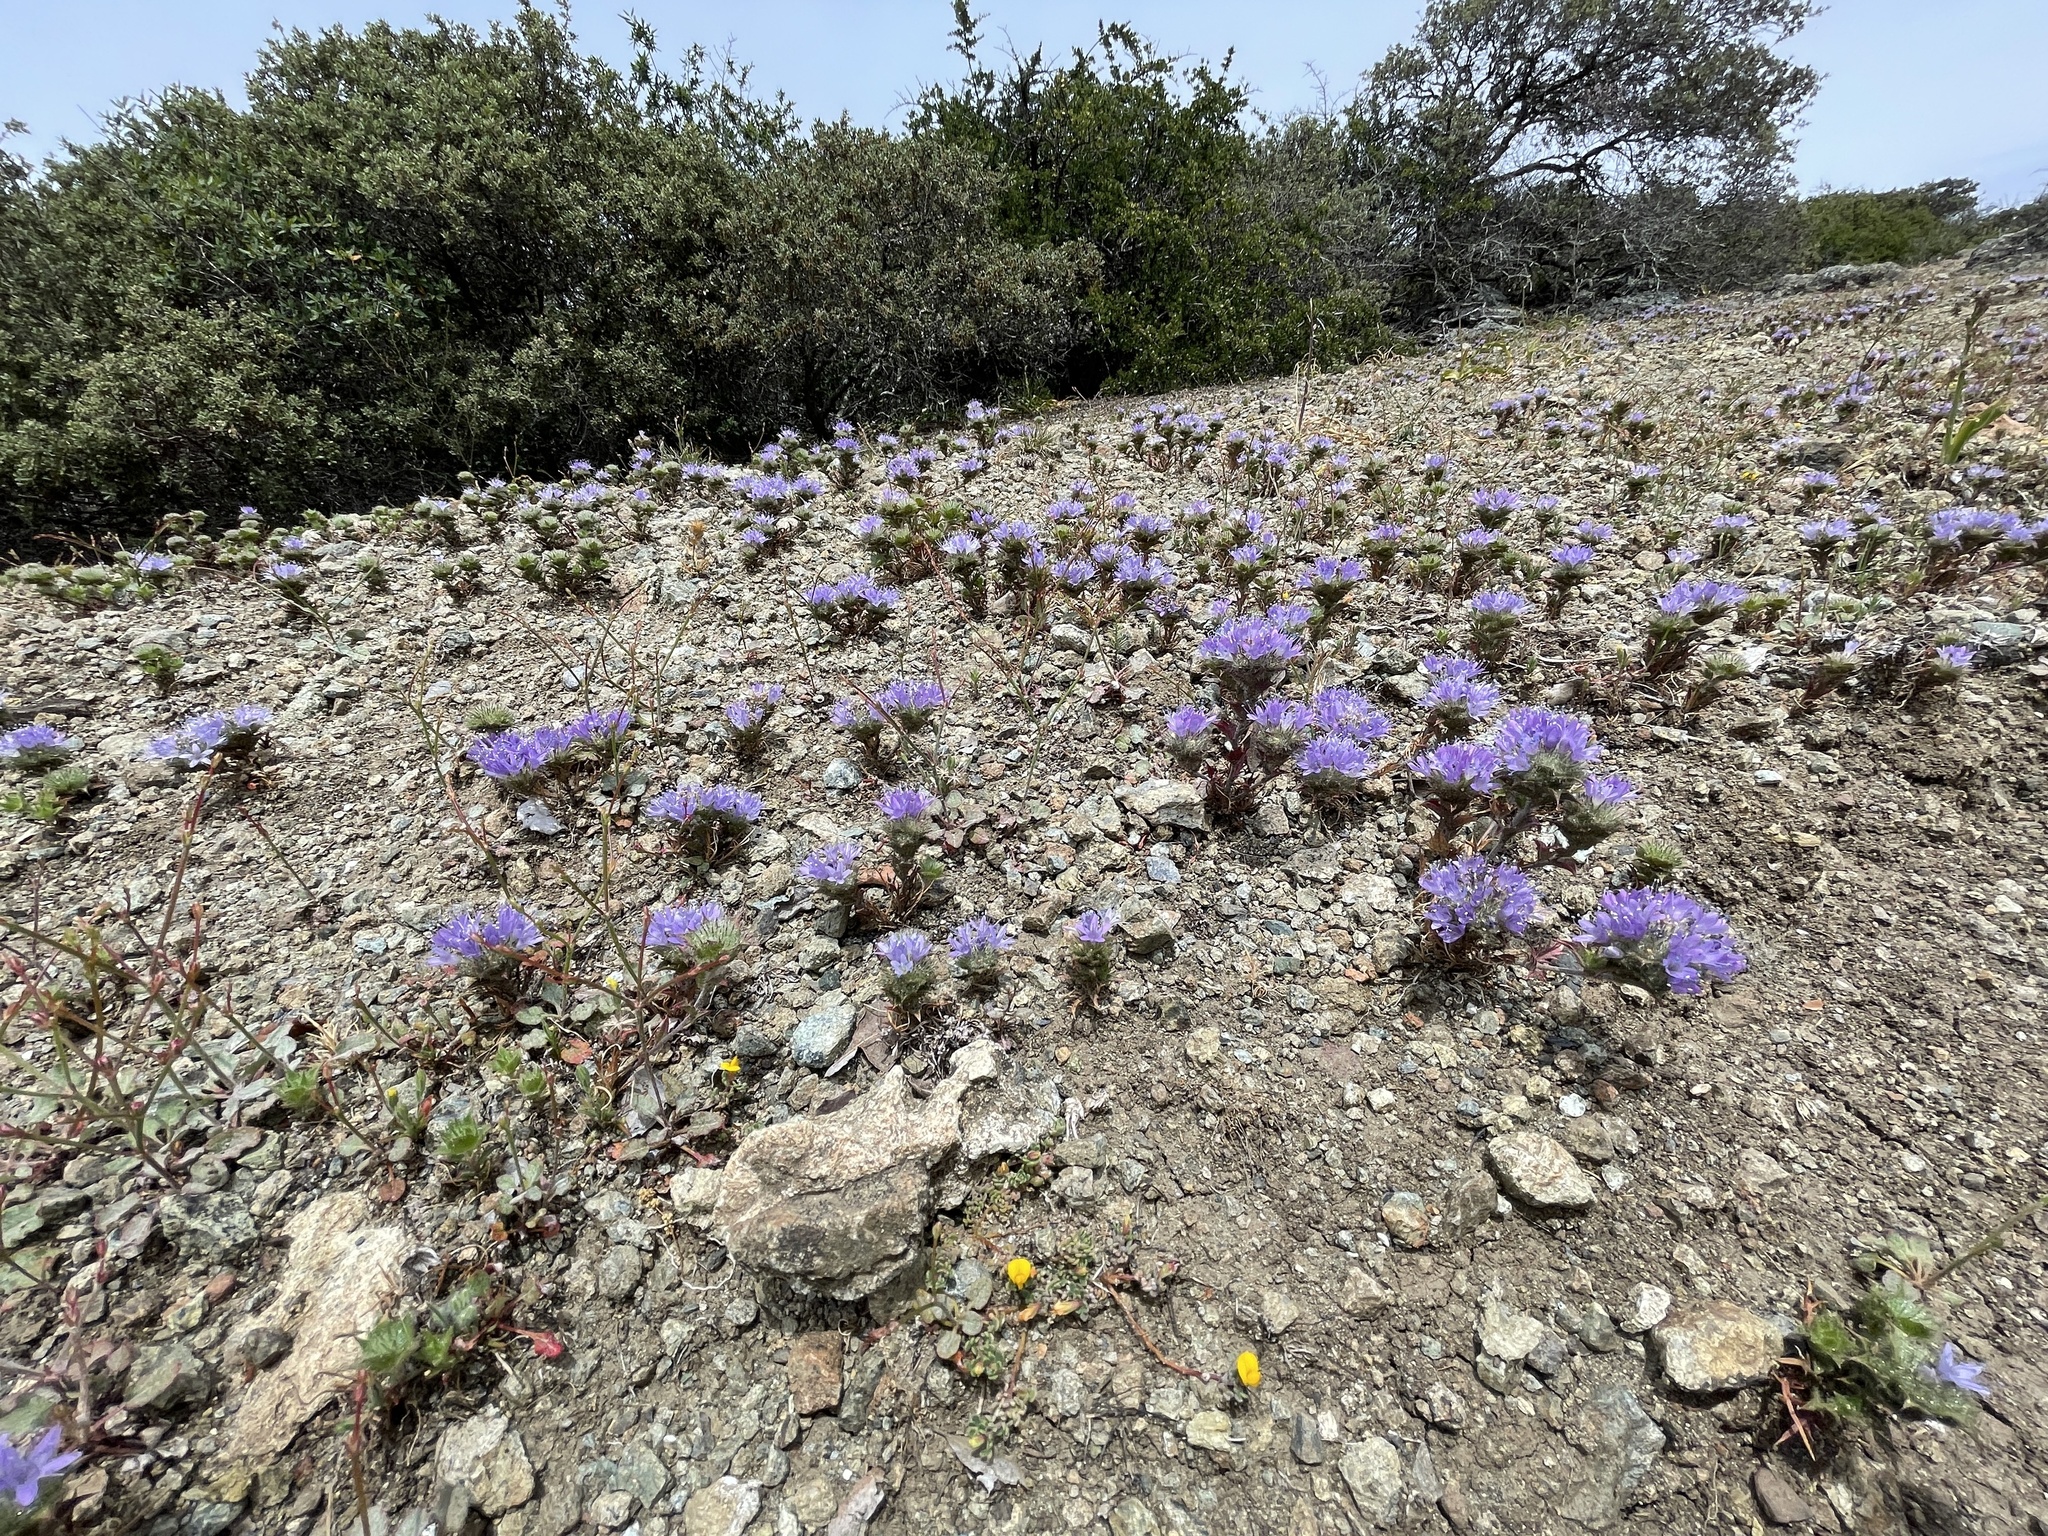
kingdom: Plantae
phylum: Tracheophyta
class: Magnoliopsida
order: Ericales
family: Polemoniaceae
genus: Navarretia
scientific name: Navarretia heterodoxa
